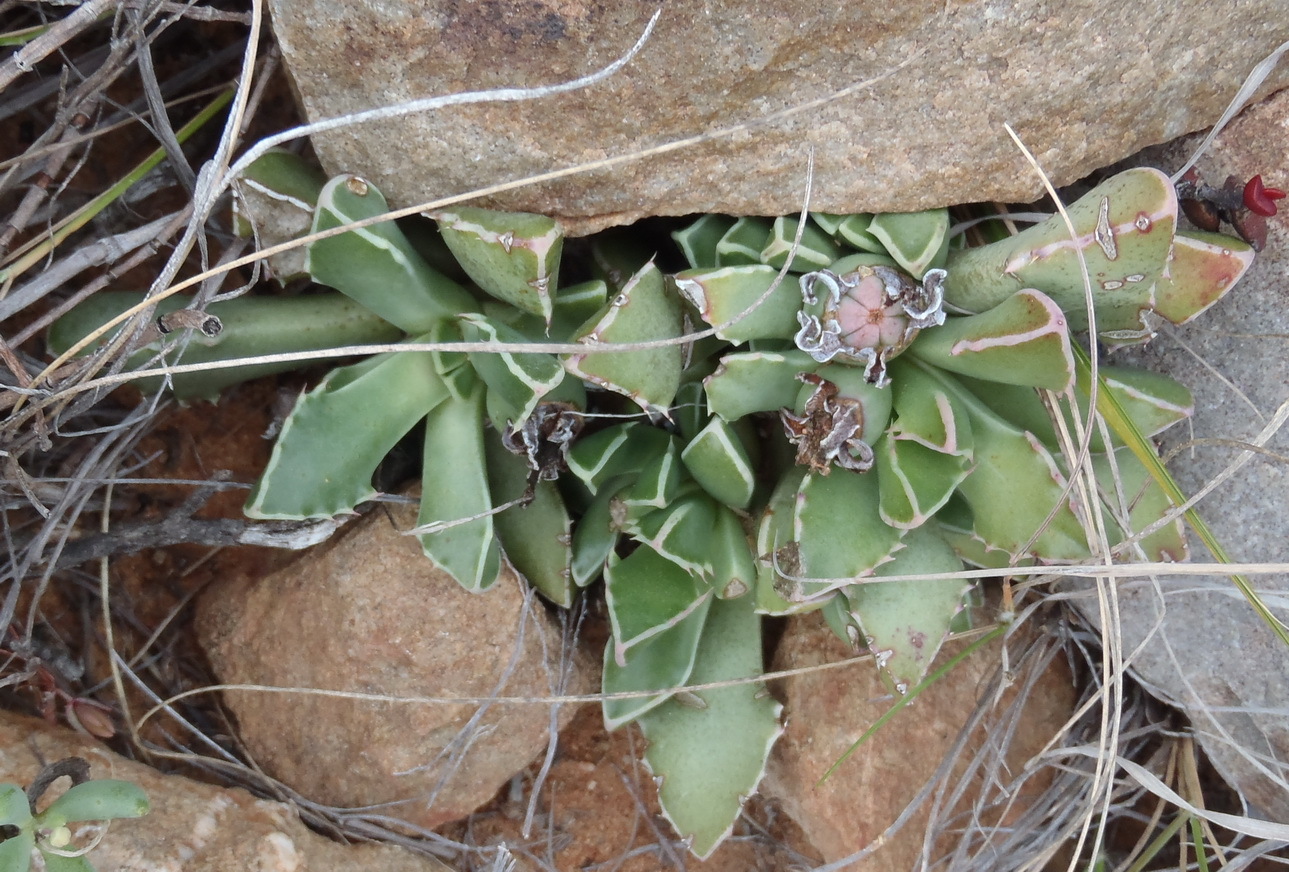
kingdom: Plantae
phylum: Tracheophyta
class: Magnoliopsida
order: Caryophyllales
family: Aizoaceae
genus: Faucaria
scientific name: Faucaria bosscheana
